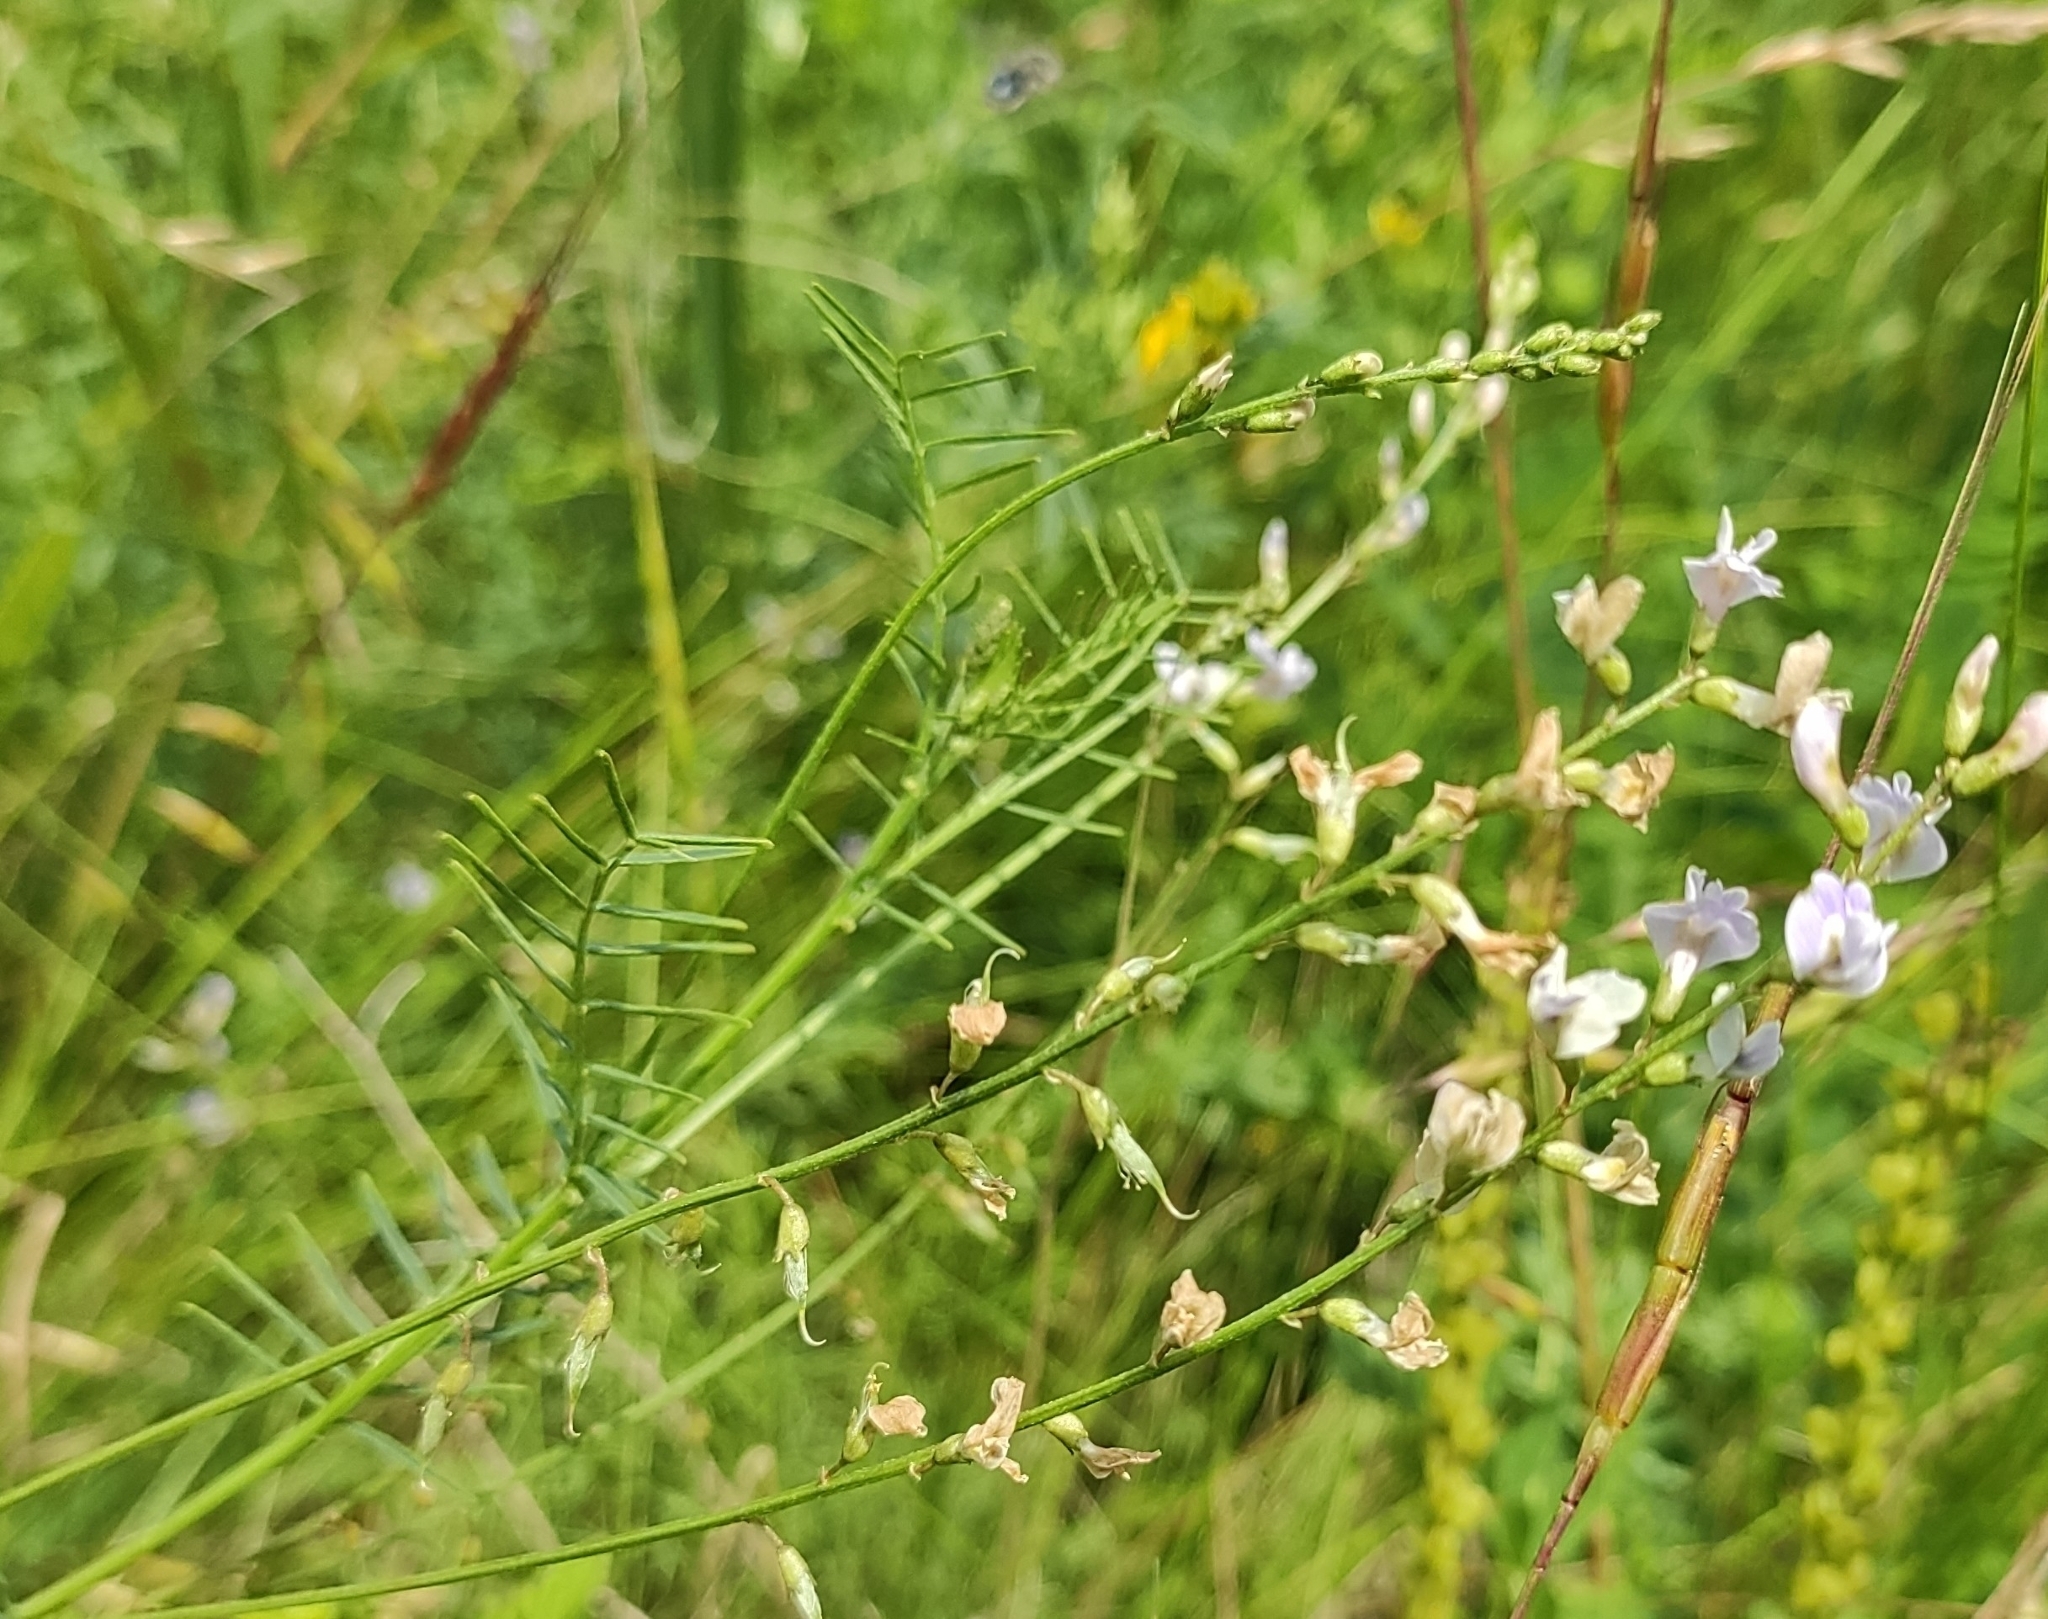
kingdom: Plantae
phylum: Tracheophyta
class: Magnoliopsida
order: Fabales
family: Fabaceae
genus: Astragalus
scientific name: Astragalus austriacus
